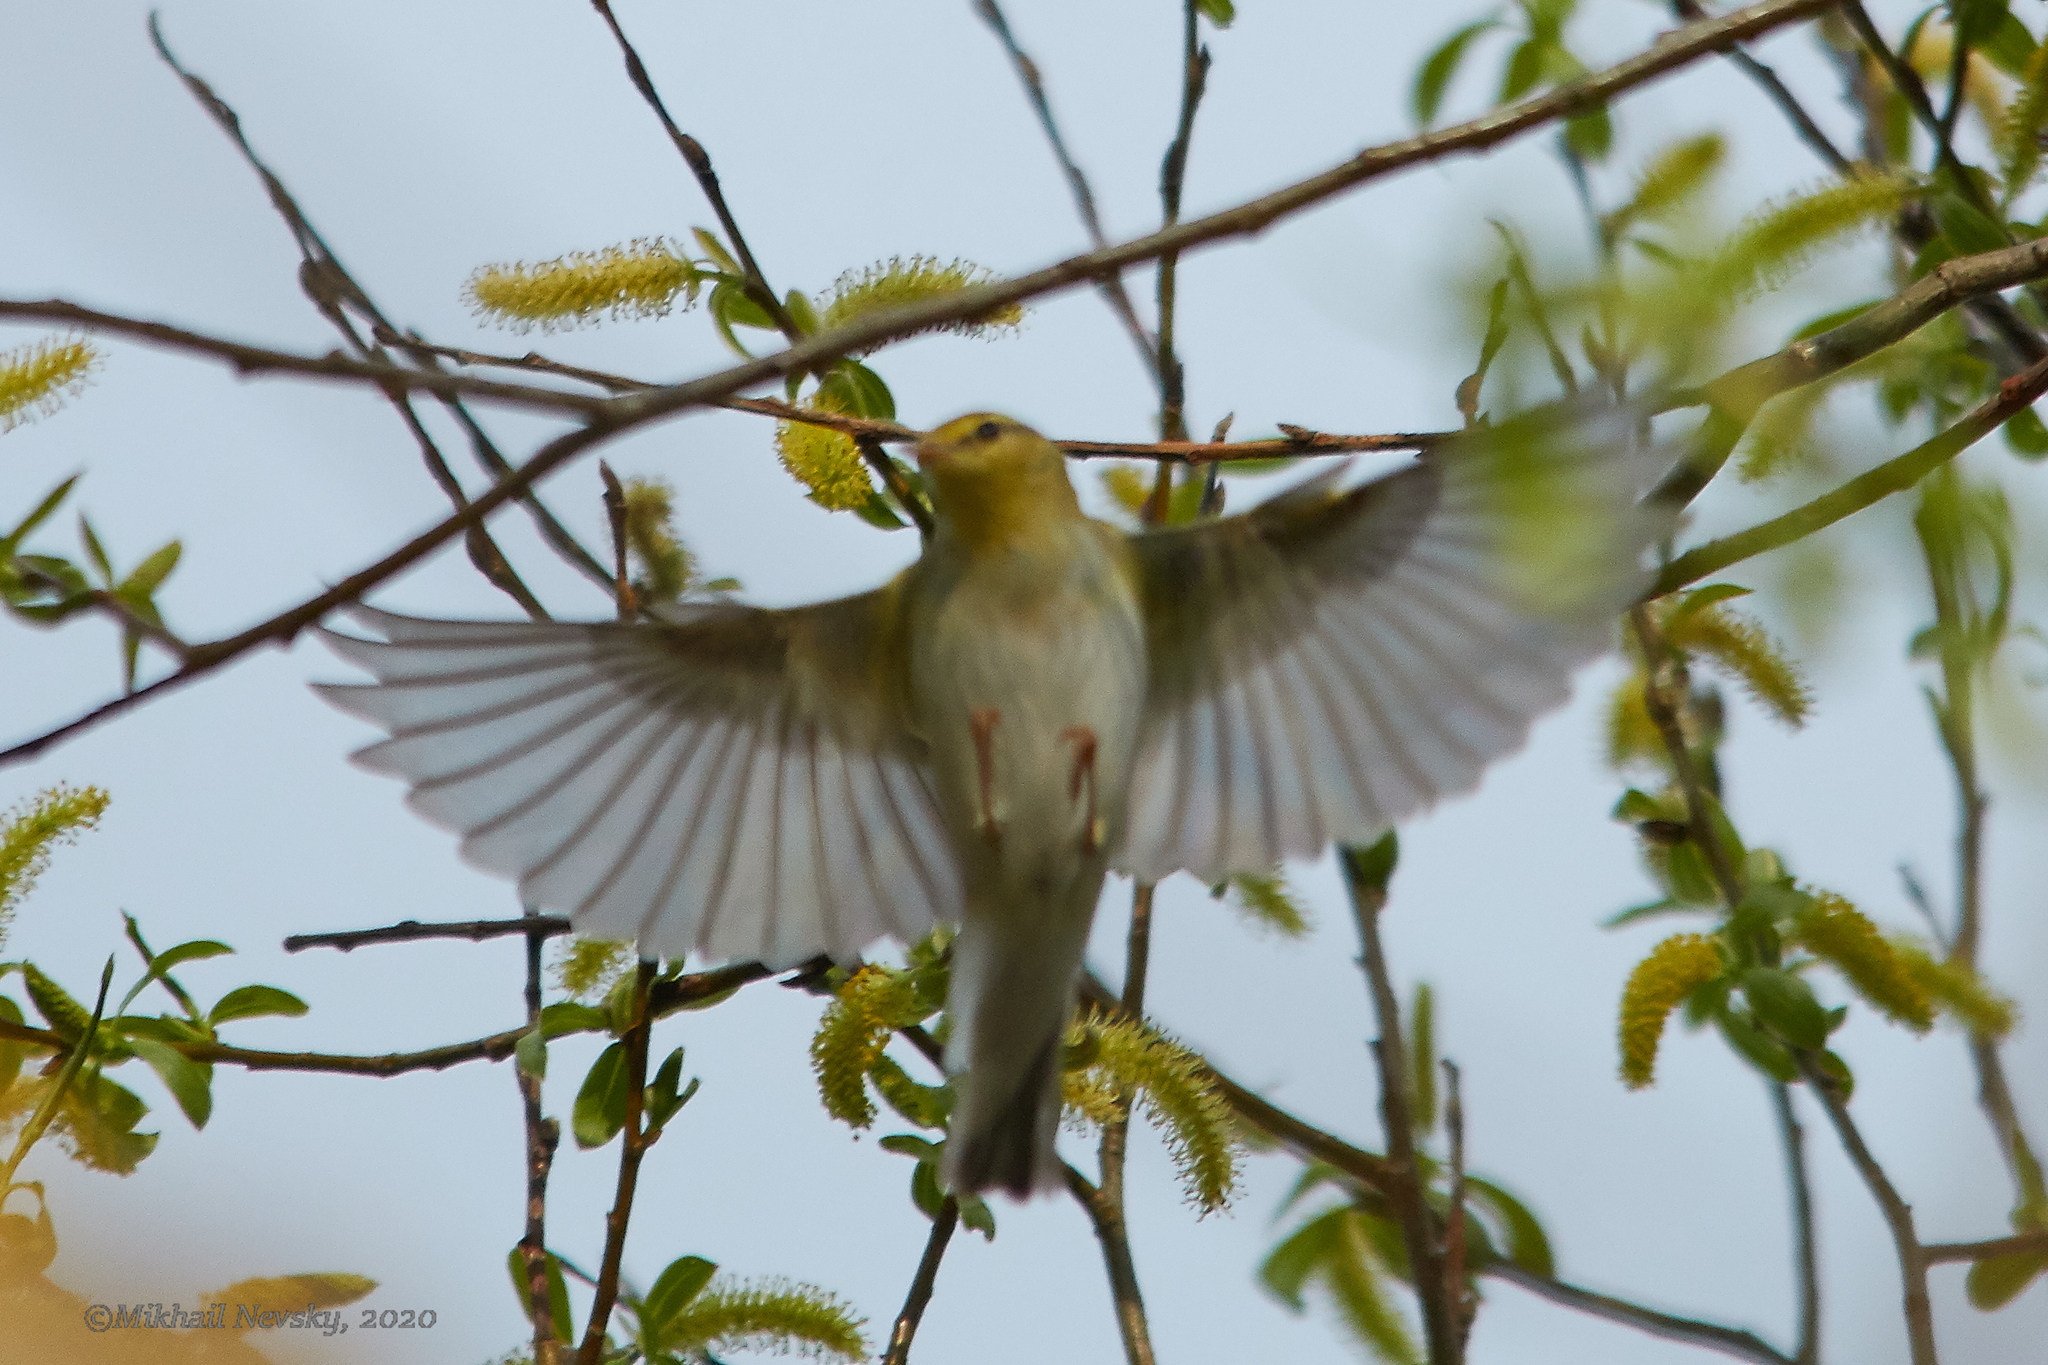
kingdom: Animalia
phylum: Chordata
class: Aves
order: Passeriformes
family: Phylloscopidae
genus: Phylloscopus
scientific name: Phylloscopus sibillatrix
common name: Wood warbler
